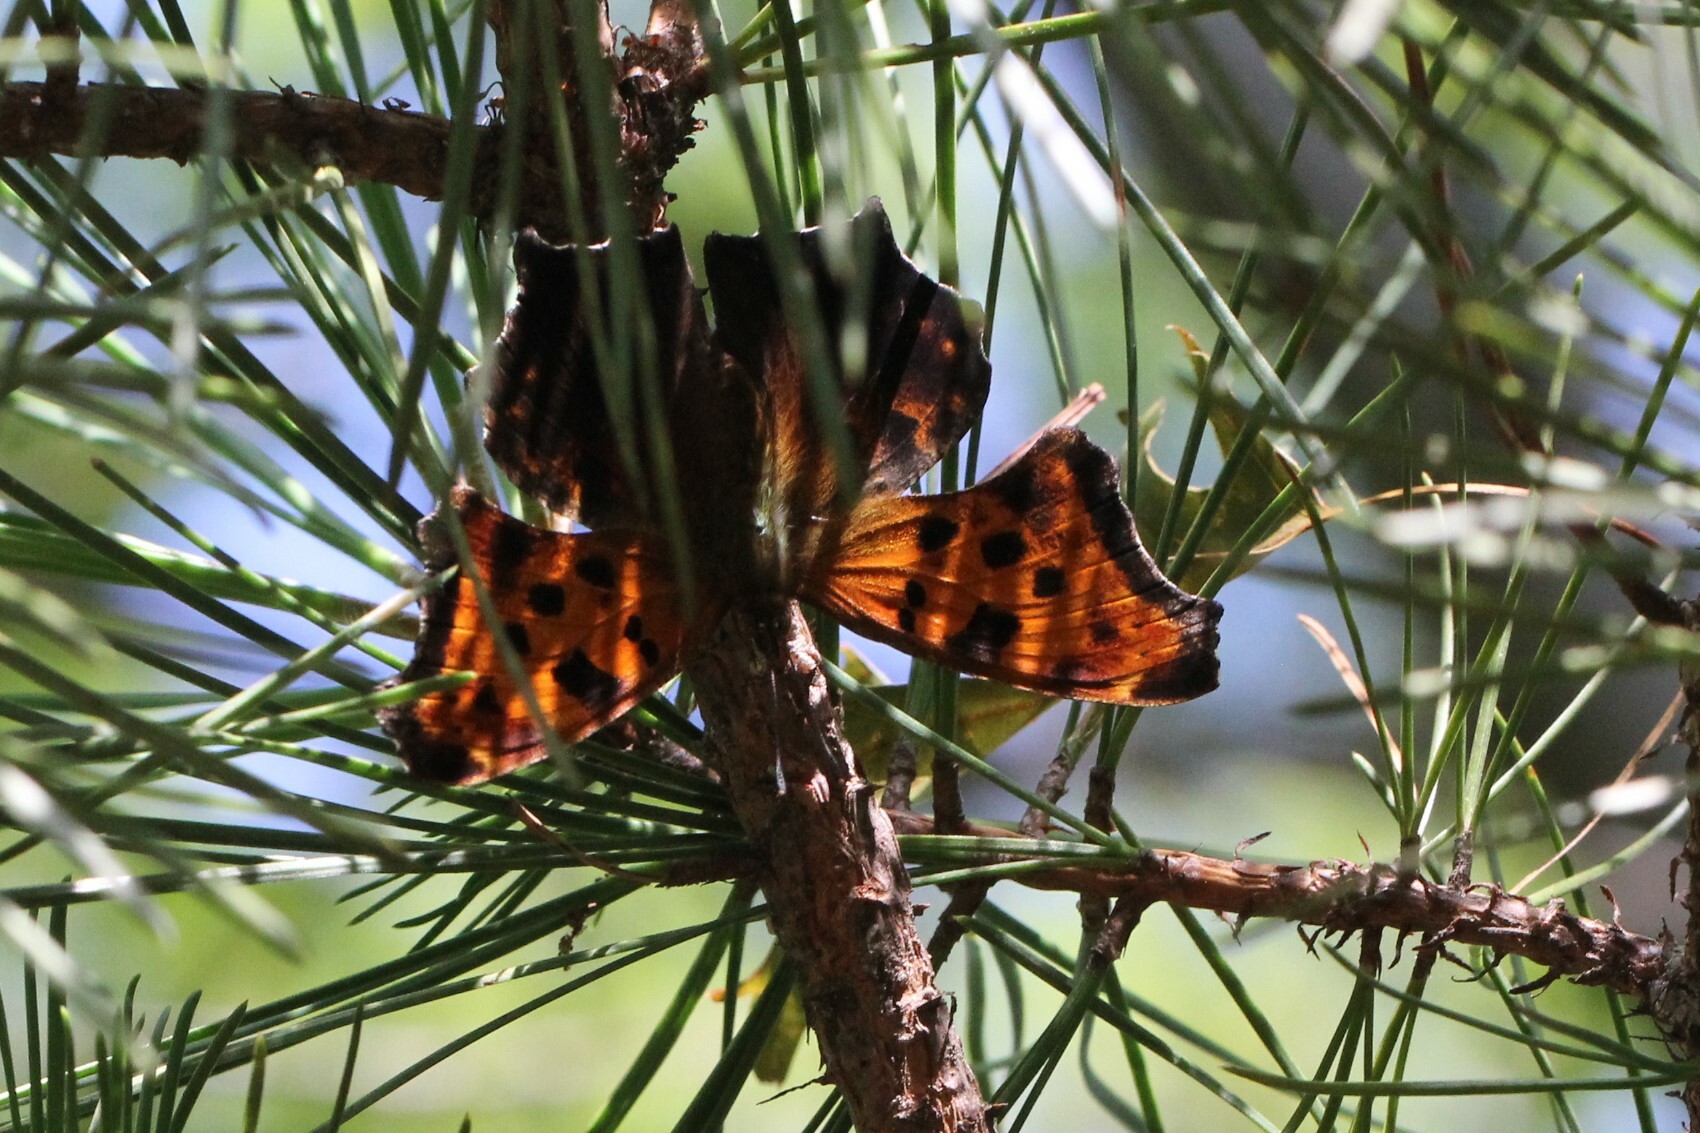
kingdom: Animalia
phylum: Arthropoda
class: Insecta
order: Lepidoptera
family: Nymphalidae
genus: Polygonia
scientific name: Polygonia comma
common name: Eastern comma
